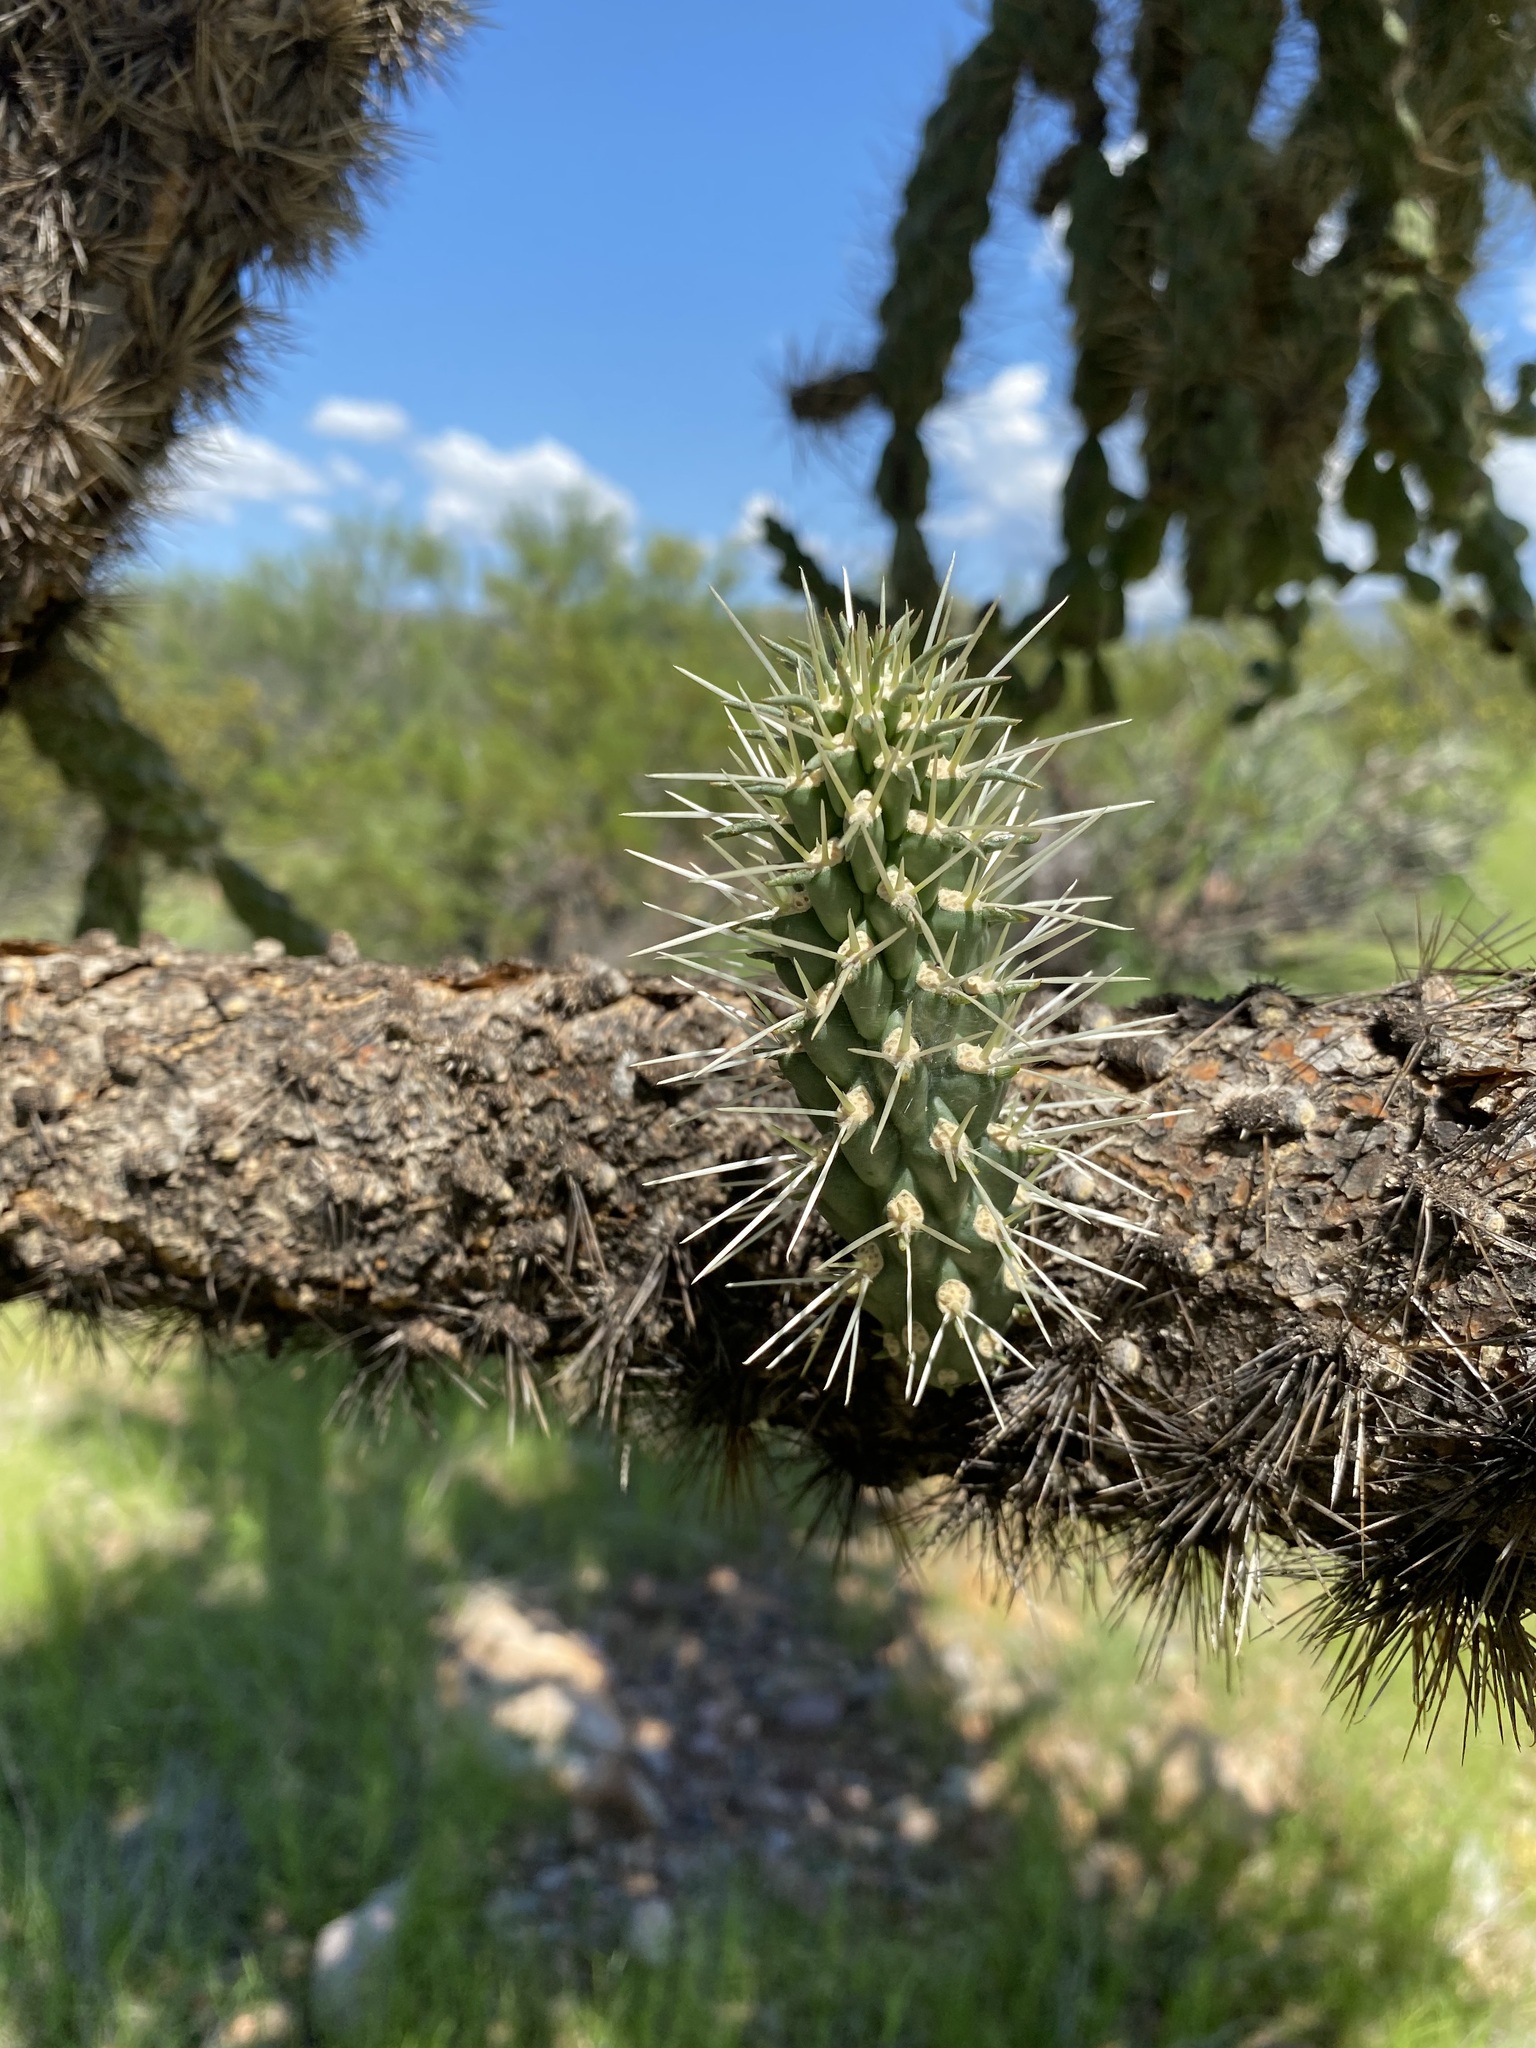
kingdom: Plantae
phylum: Tracheophyta
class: Magnoliopsida
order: Caryophyllales
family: Cactaceae
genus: Cylindropuntia
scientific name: Cylindropuntia fulgida
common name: Jumping cholla
